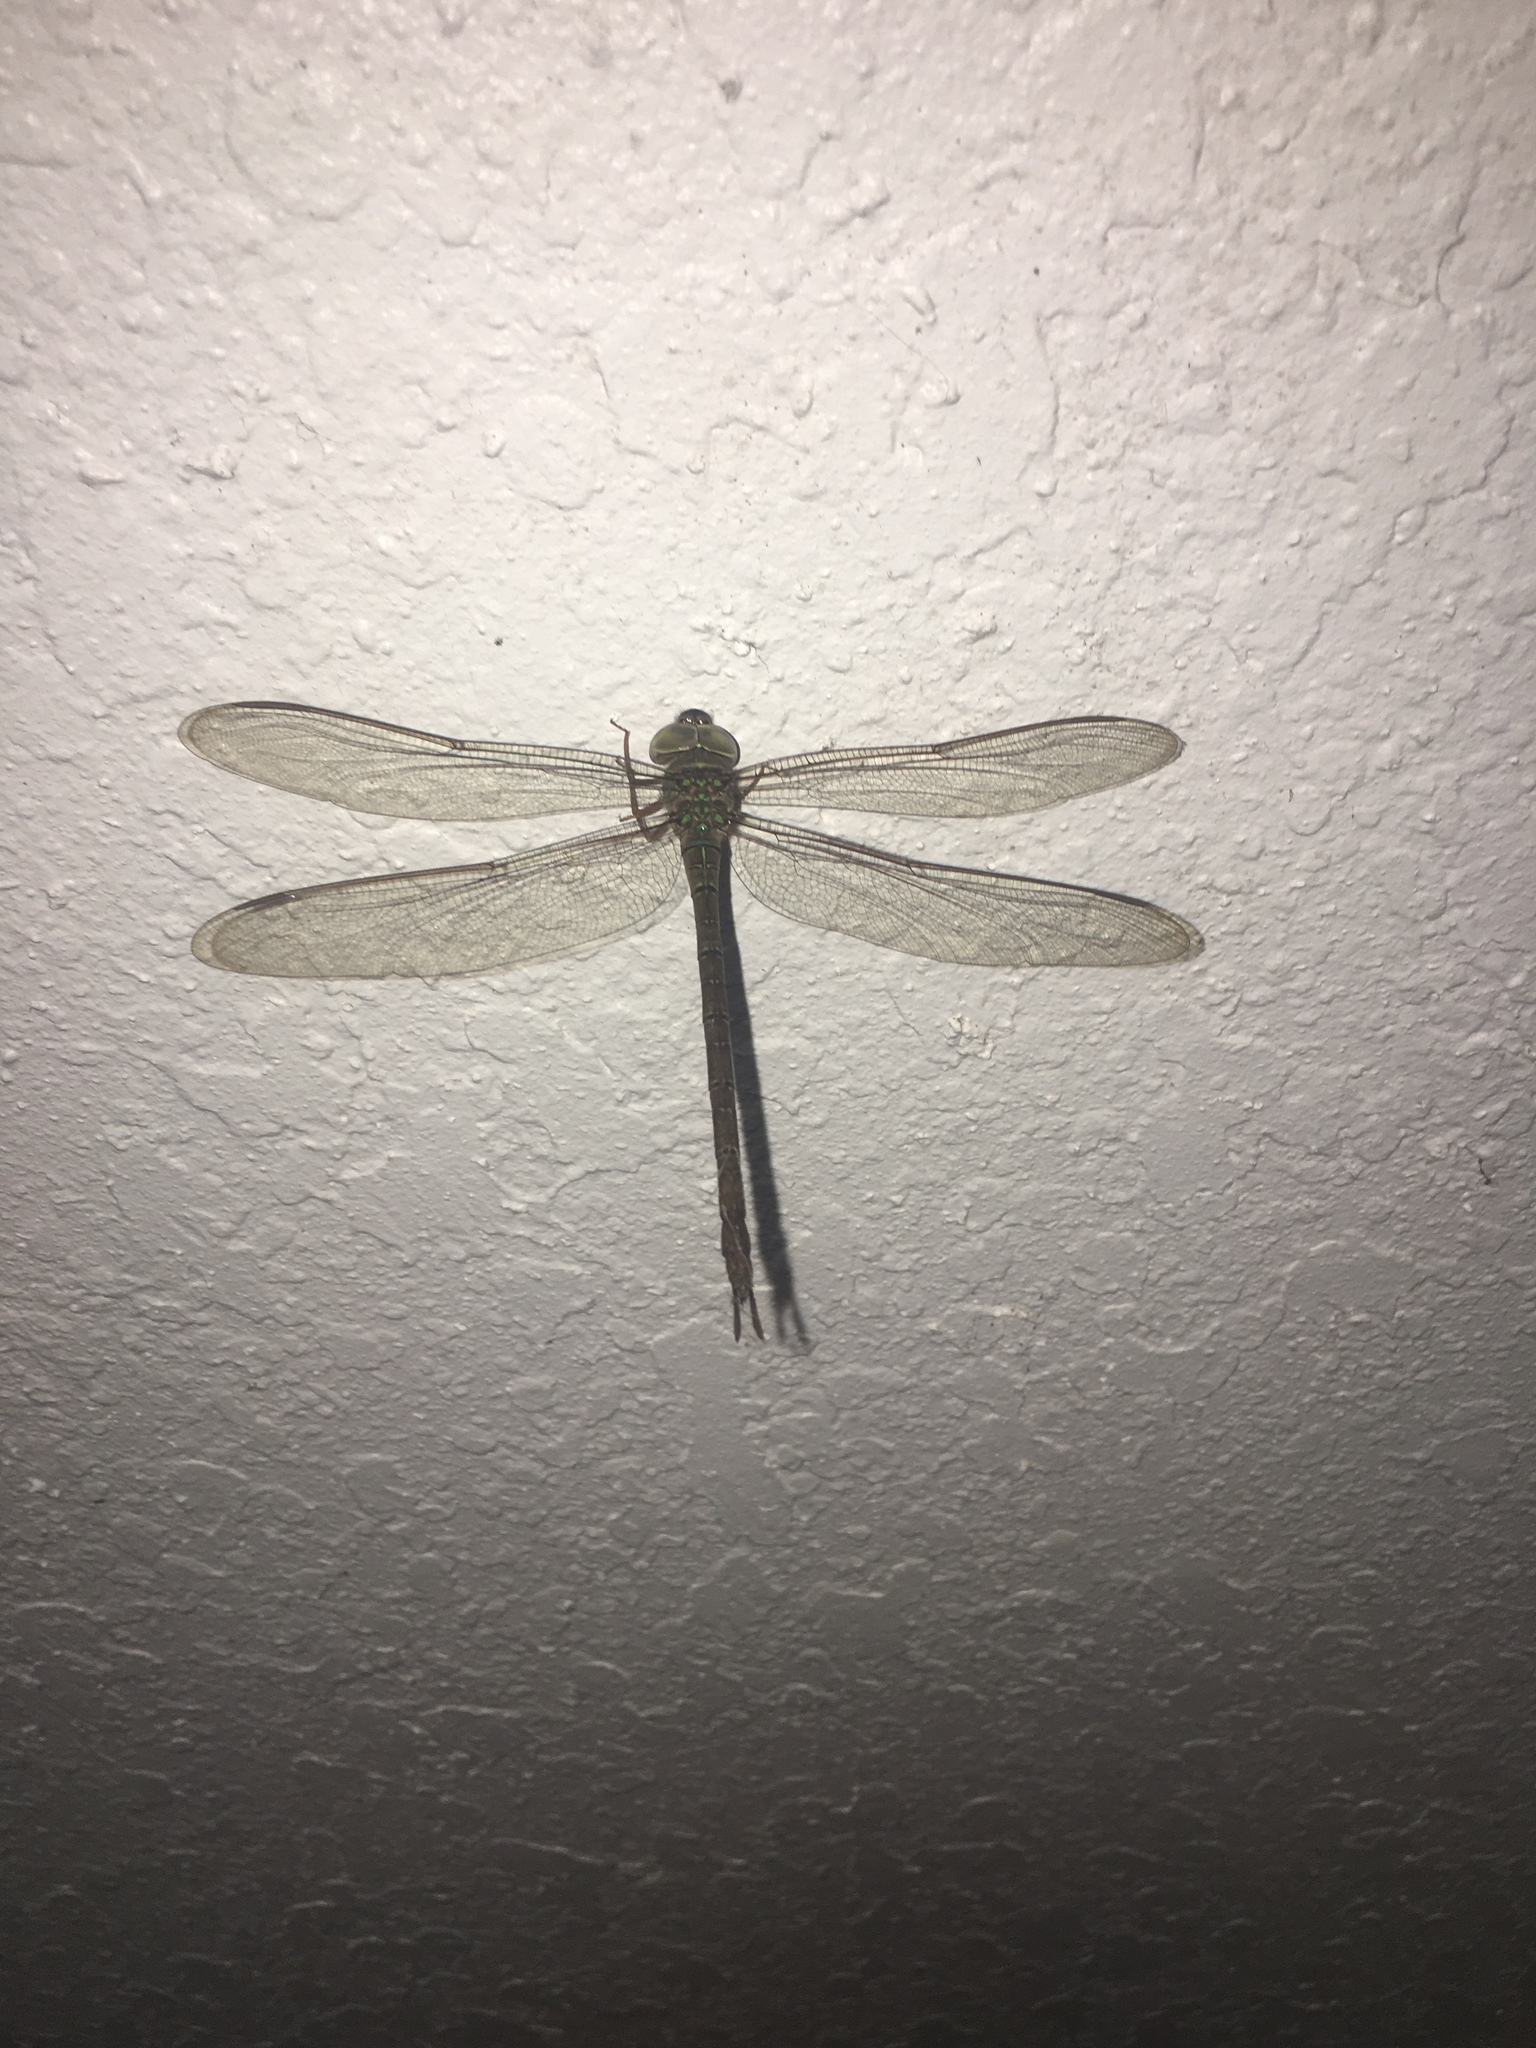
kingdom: Animalia
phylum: Arthropoda
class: Insecta
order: Odonata
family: Aeshnidae
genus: Gynacantha
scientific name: Gynacantha nervosa
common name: Twilight darner
